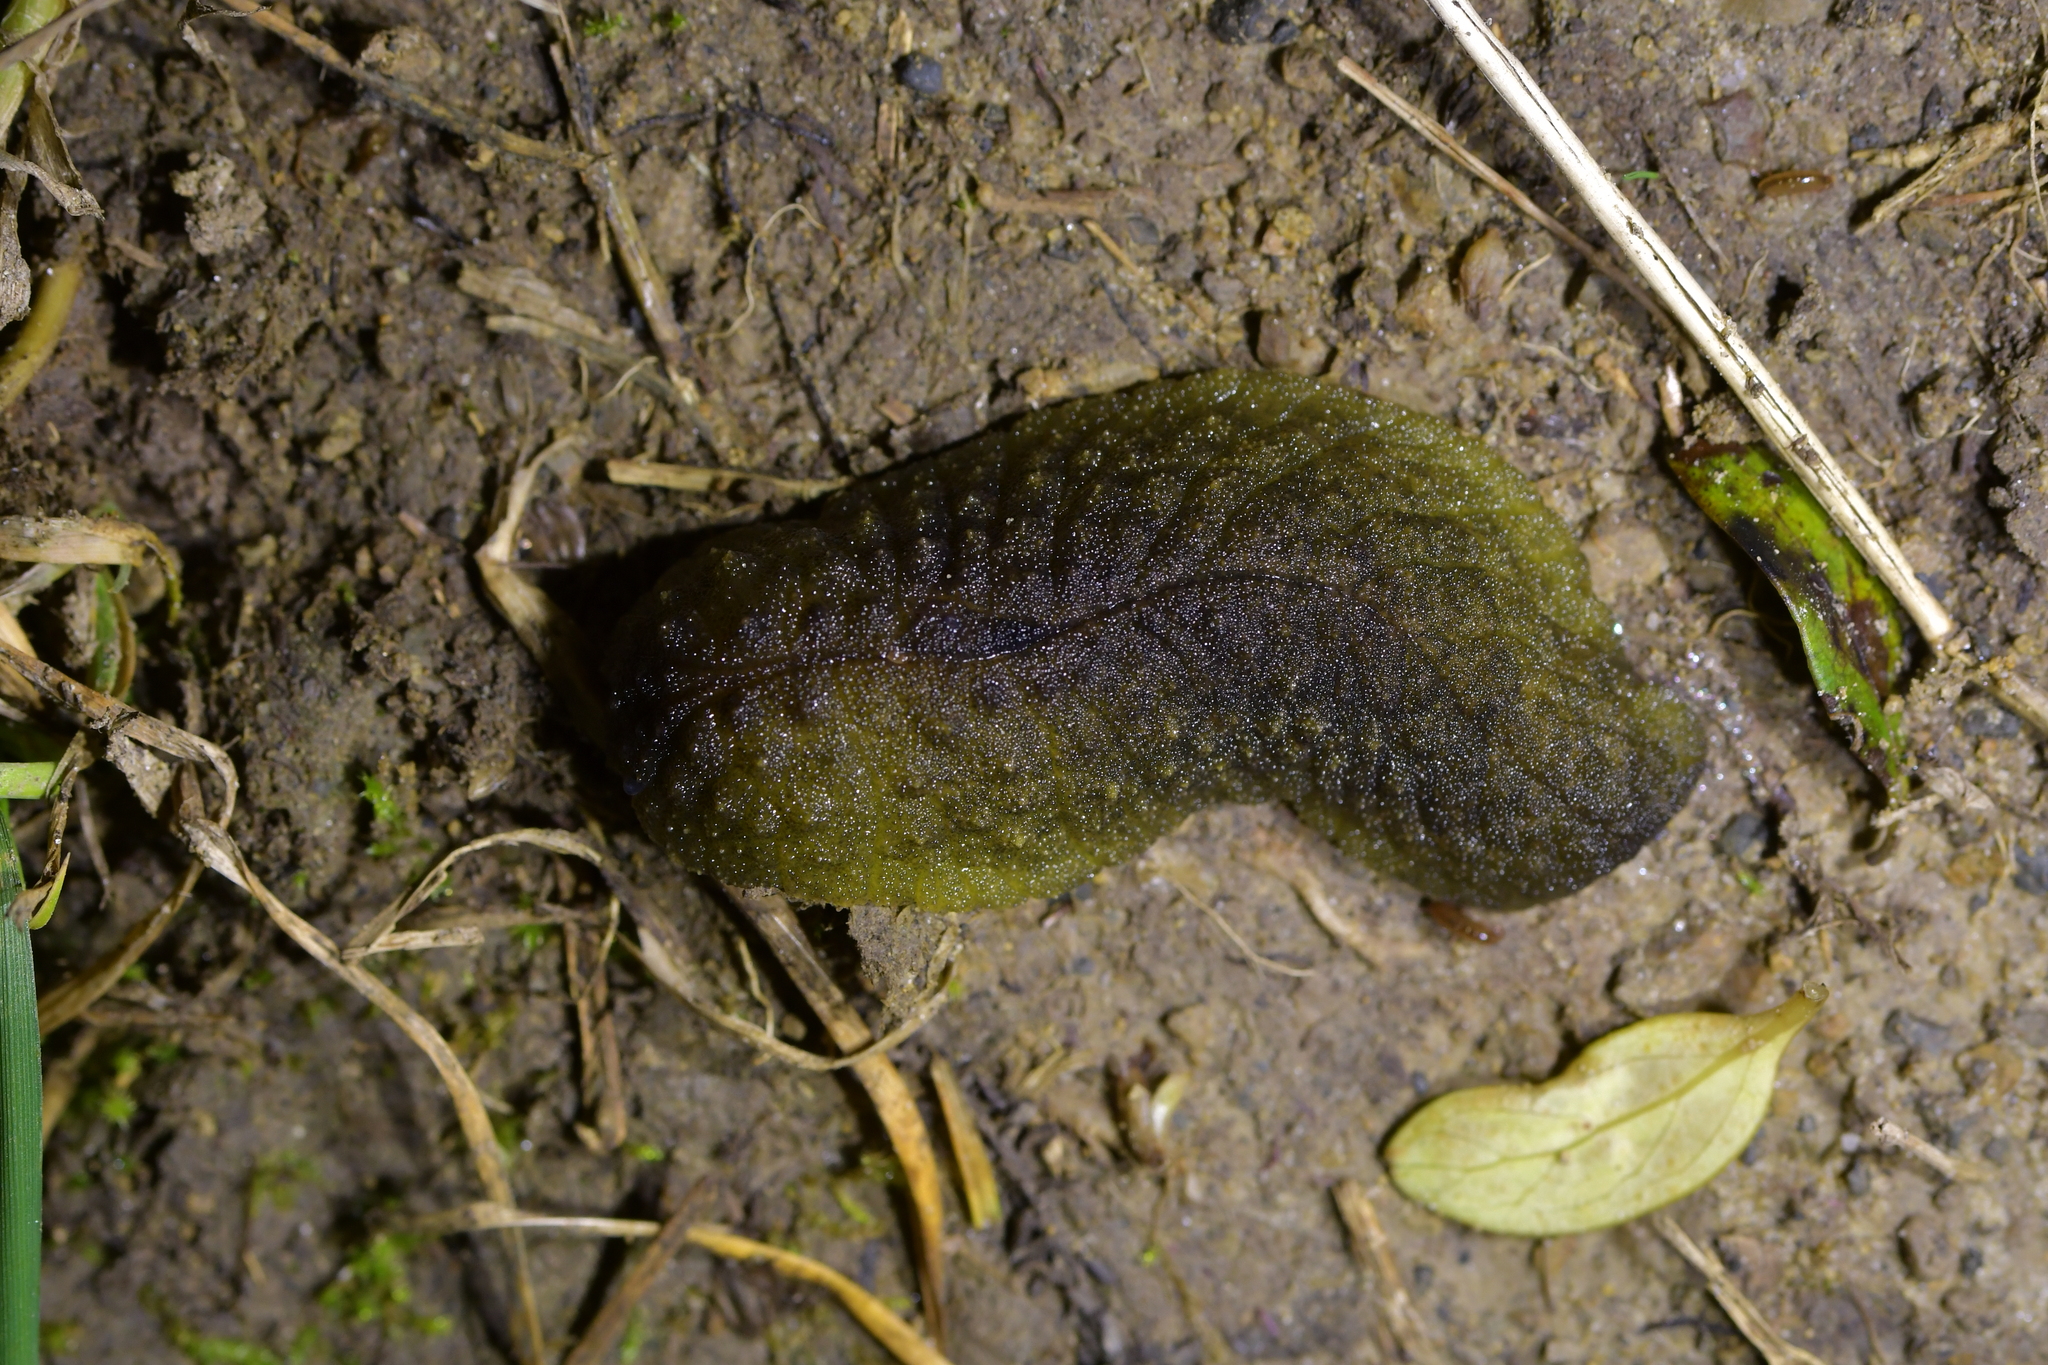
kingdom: Animalia
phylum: Mollusca
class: Gastropoda
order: Stylommatophora
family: Athoracophoridae
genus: Athoracophorus
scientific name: Athoracophorus papillatus
